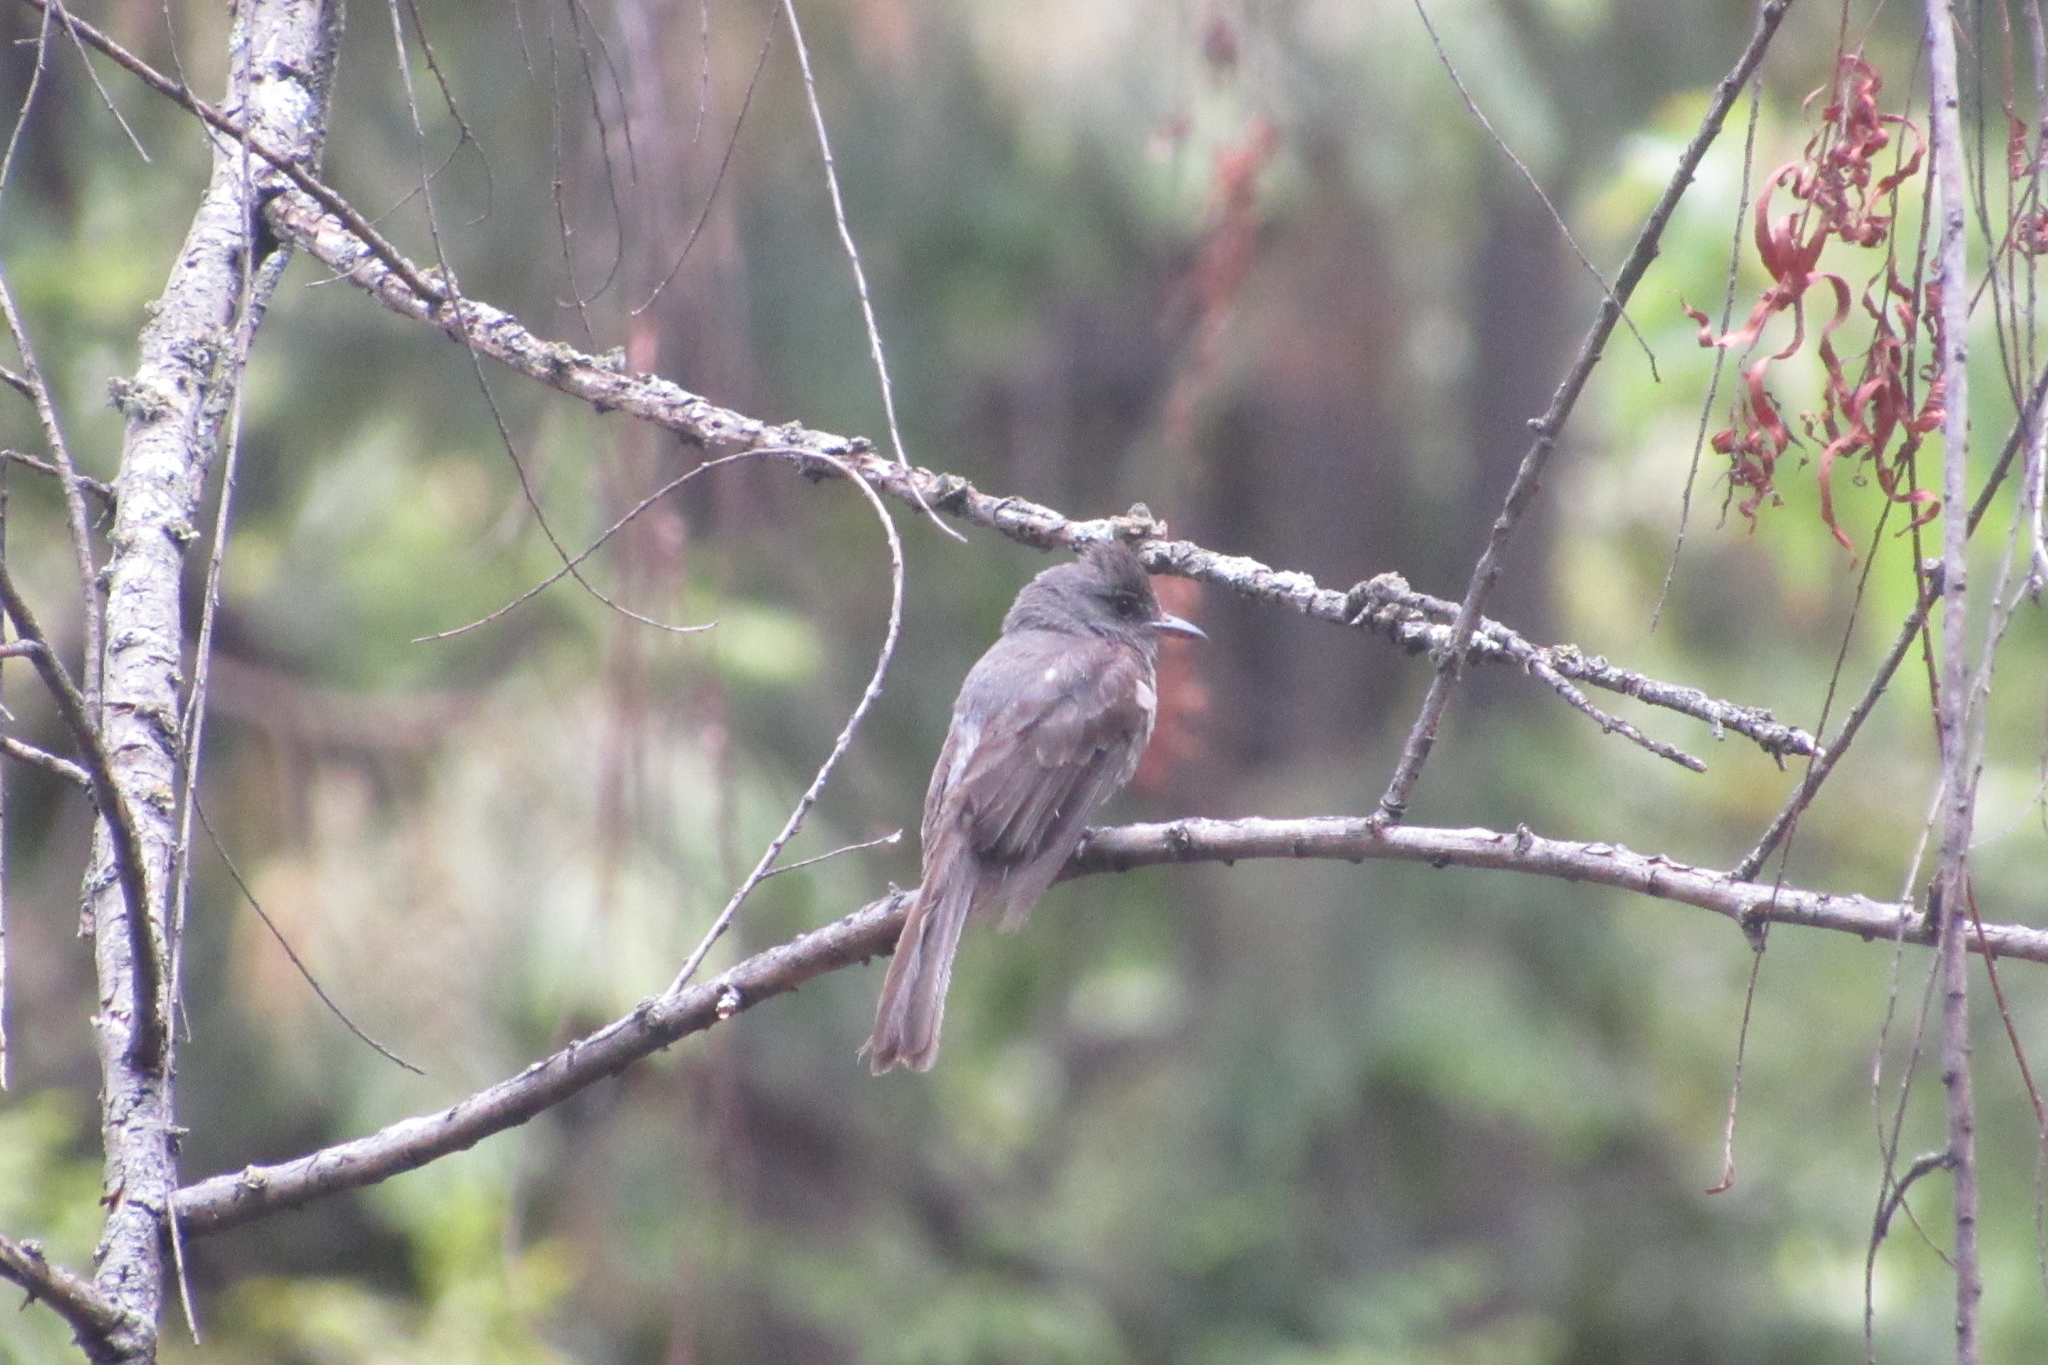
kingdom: Animalia
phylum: Chordata
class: Aves
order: Passeriformes
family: Tyrannidae
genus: Contopus
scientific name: Contopus fumigatus
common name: Smoke-colored pewee
